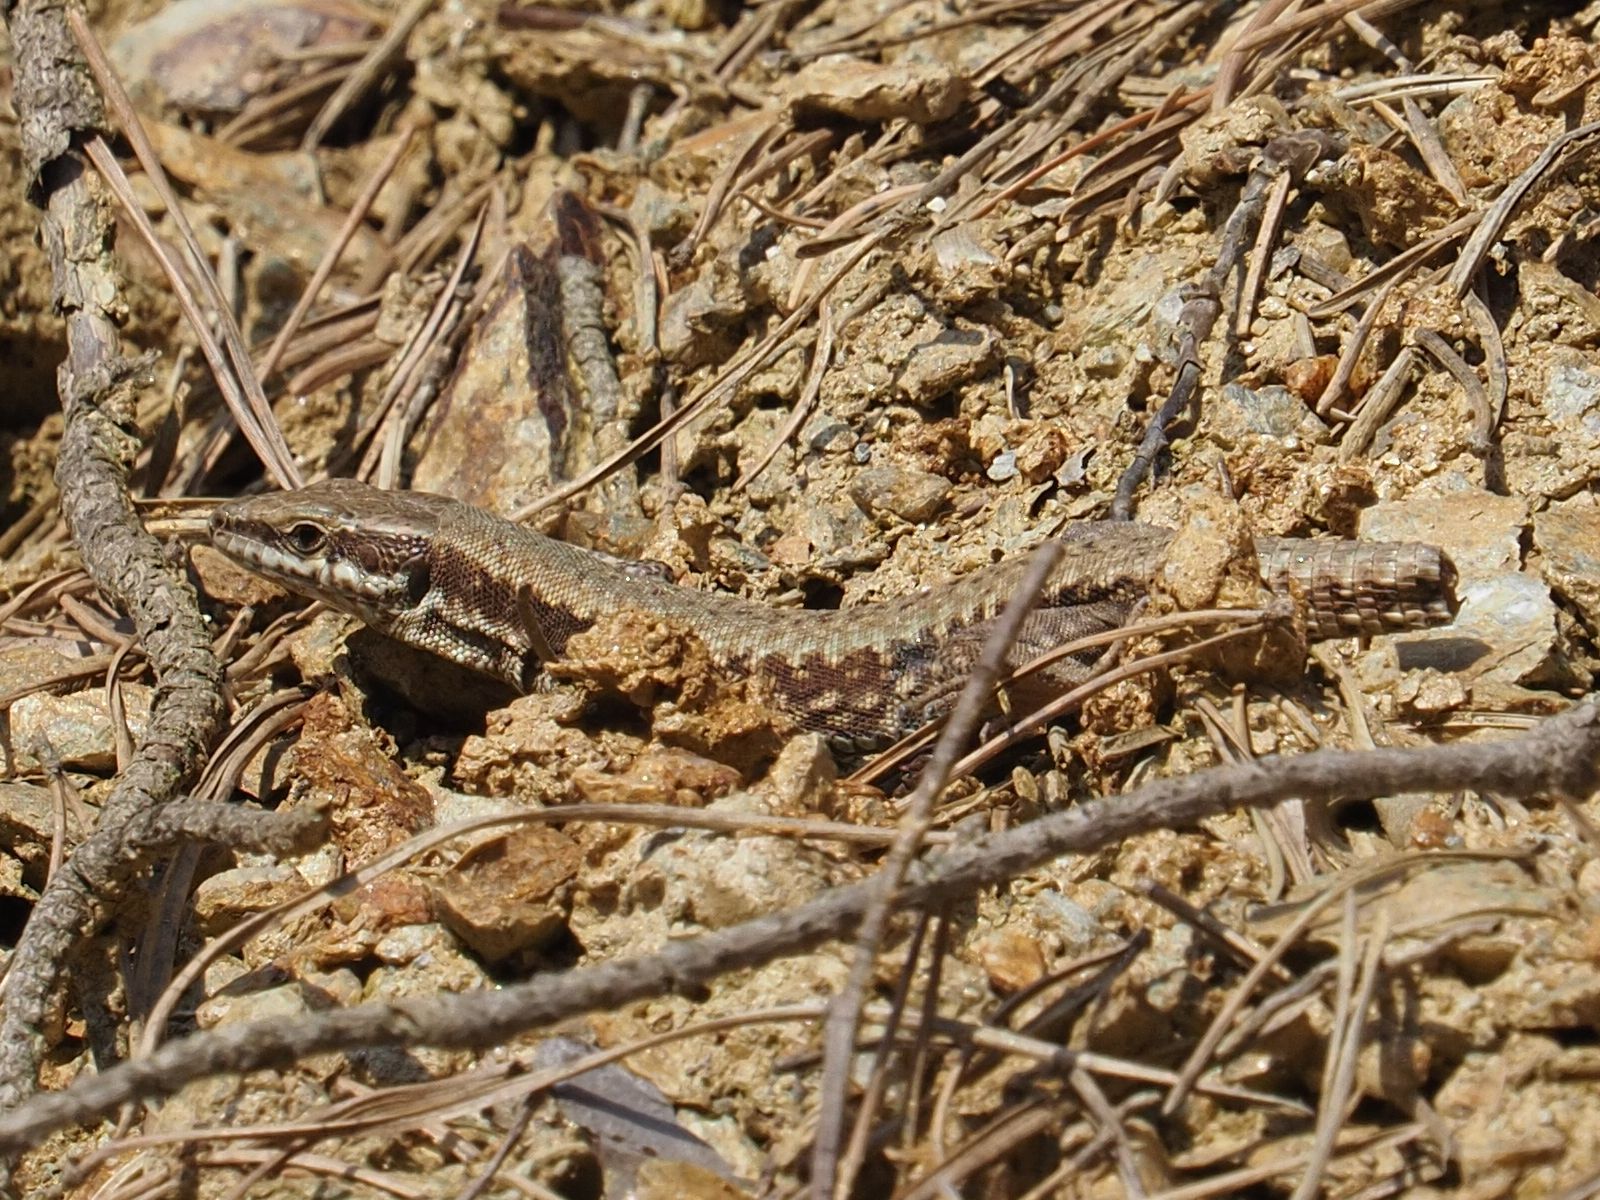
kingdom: Animalia
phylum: Chordata
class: Squamata
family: Lacertidae
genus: Podarcis
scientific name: Podarcis muralis
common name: Common wall lizard
